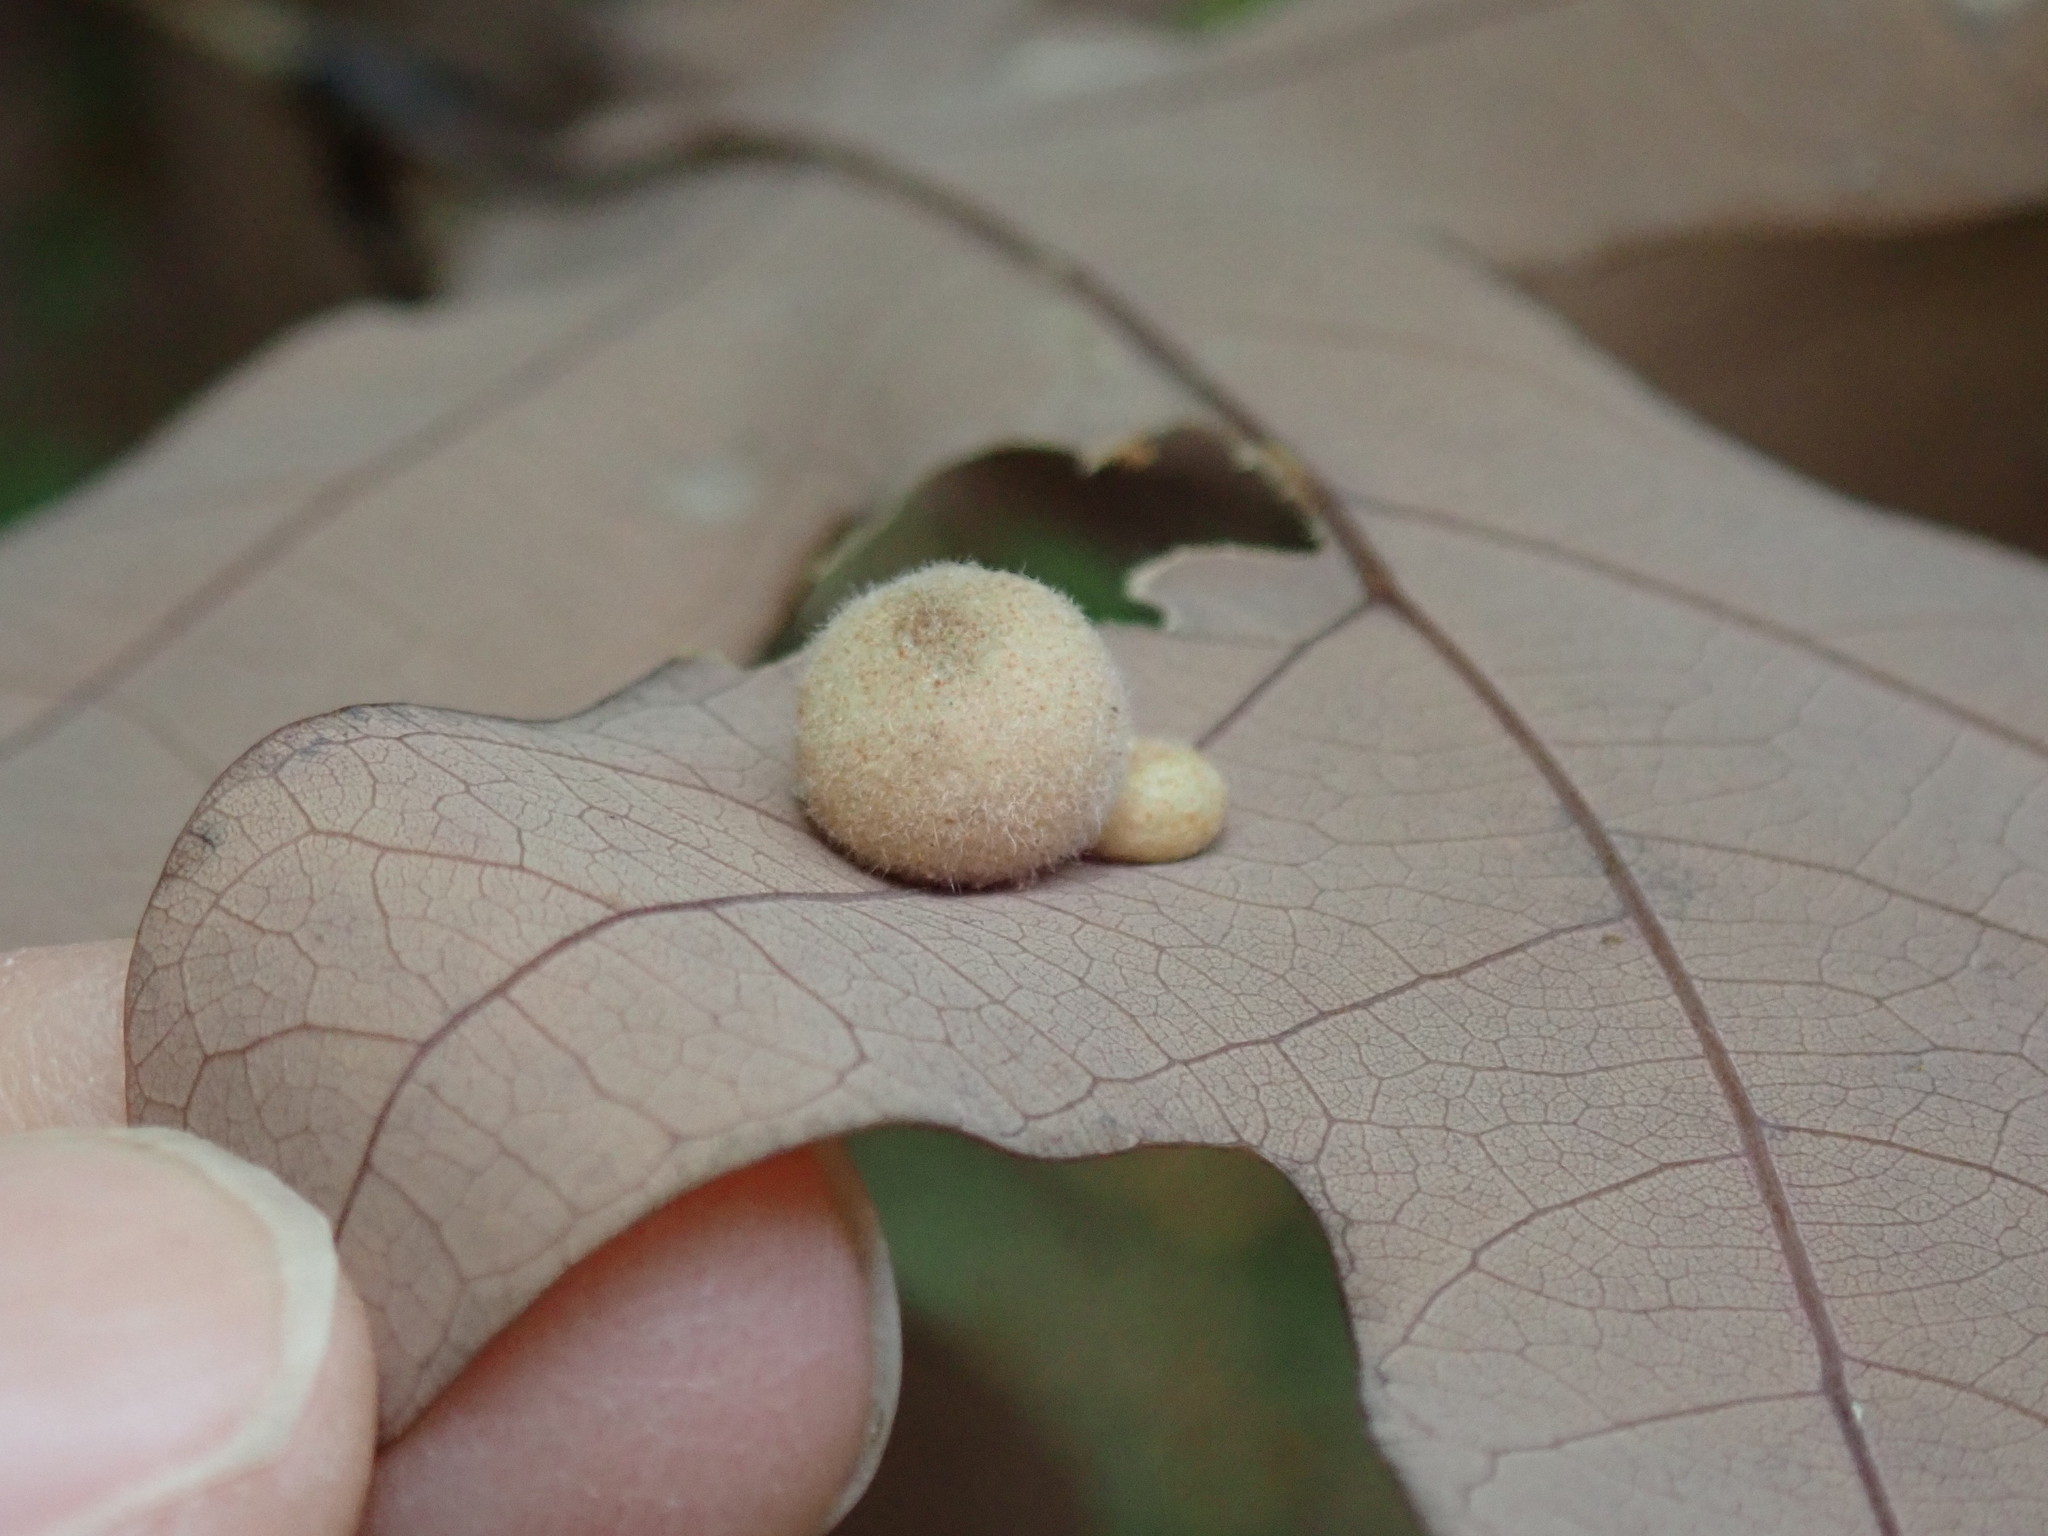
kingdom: Animalia
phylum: Arthropoda
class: Insecta
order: Hymenoptera
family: Cynipidae
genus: Philonix
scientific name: Philonix fulvicollis
